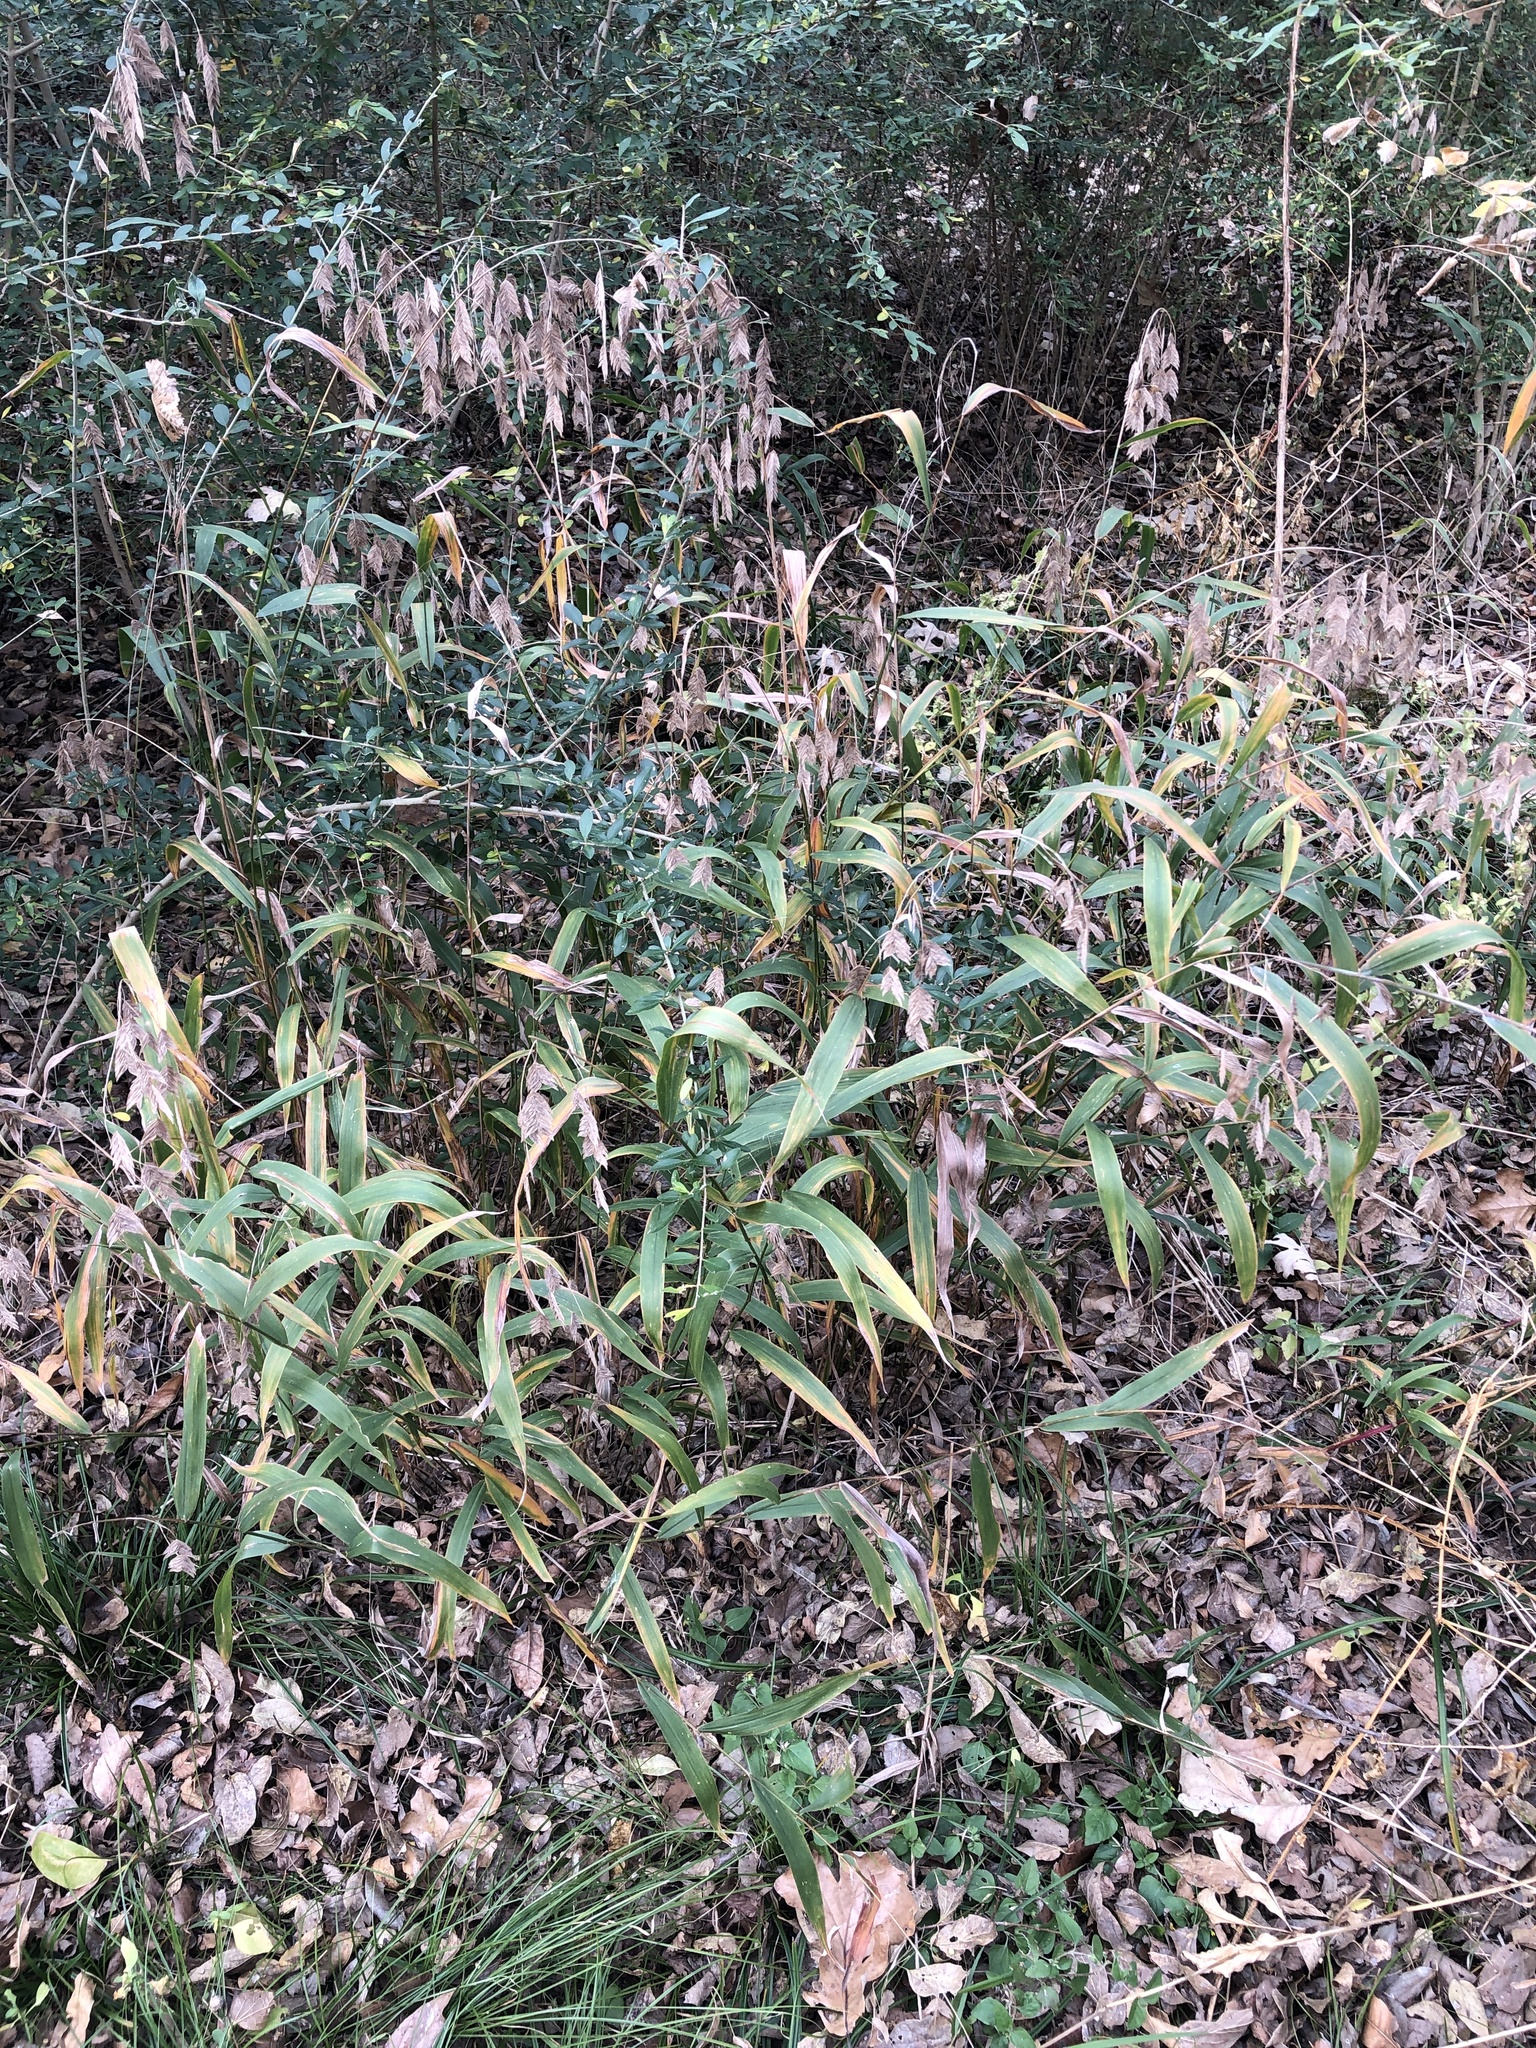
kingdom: Plantae
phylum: Tracheophyta
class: Liliopsida
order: Poales
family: Poaceae
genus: Chasmanthium
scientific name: Chasmanthium latifolium
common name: Broad-leaved chasmanthium
